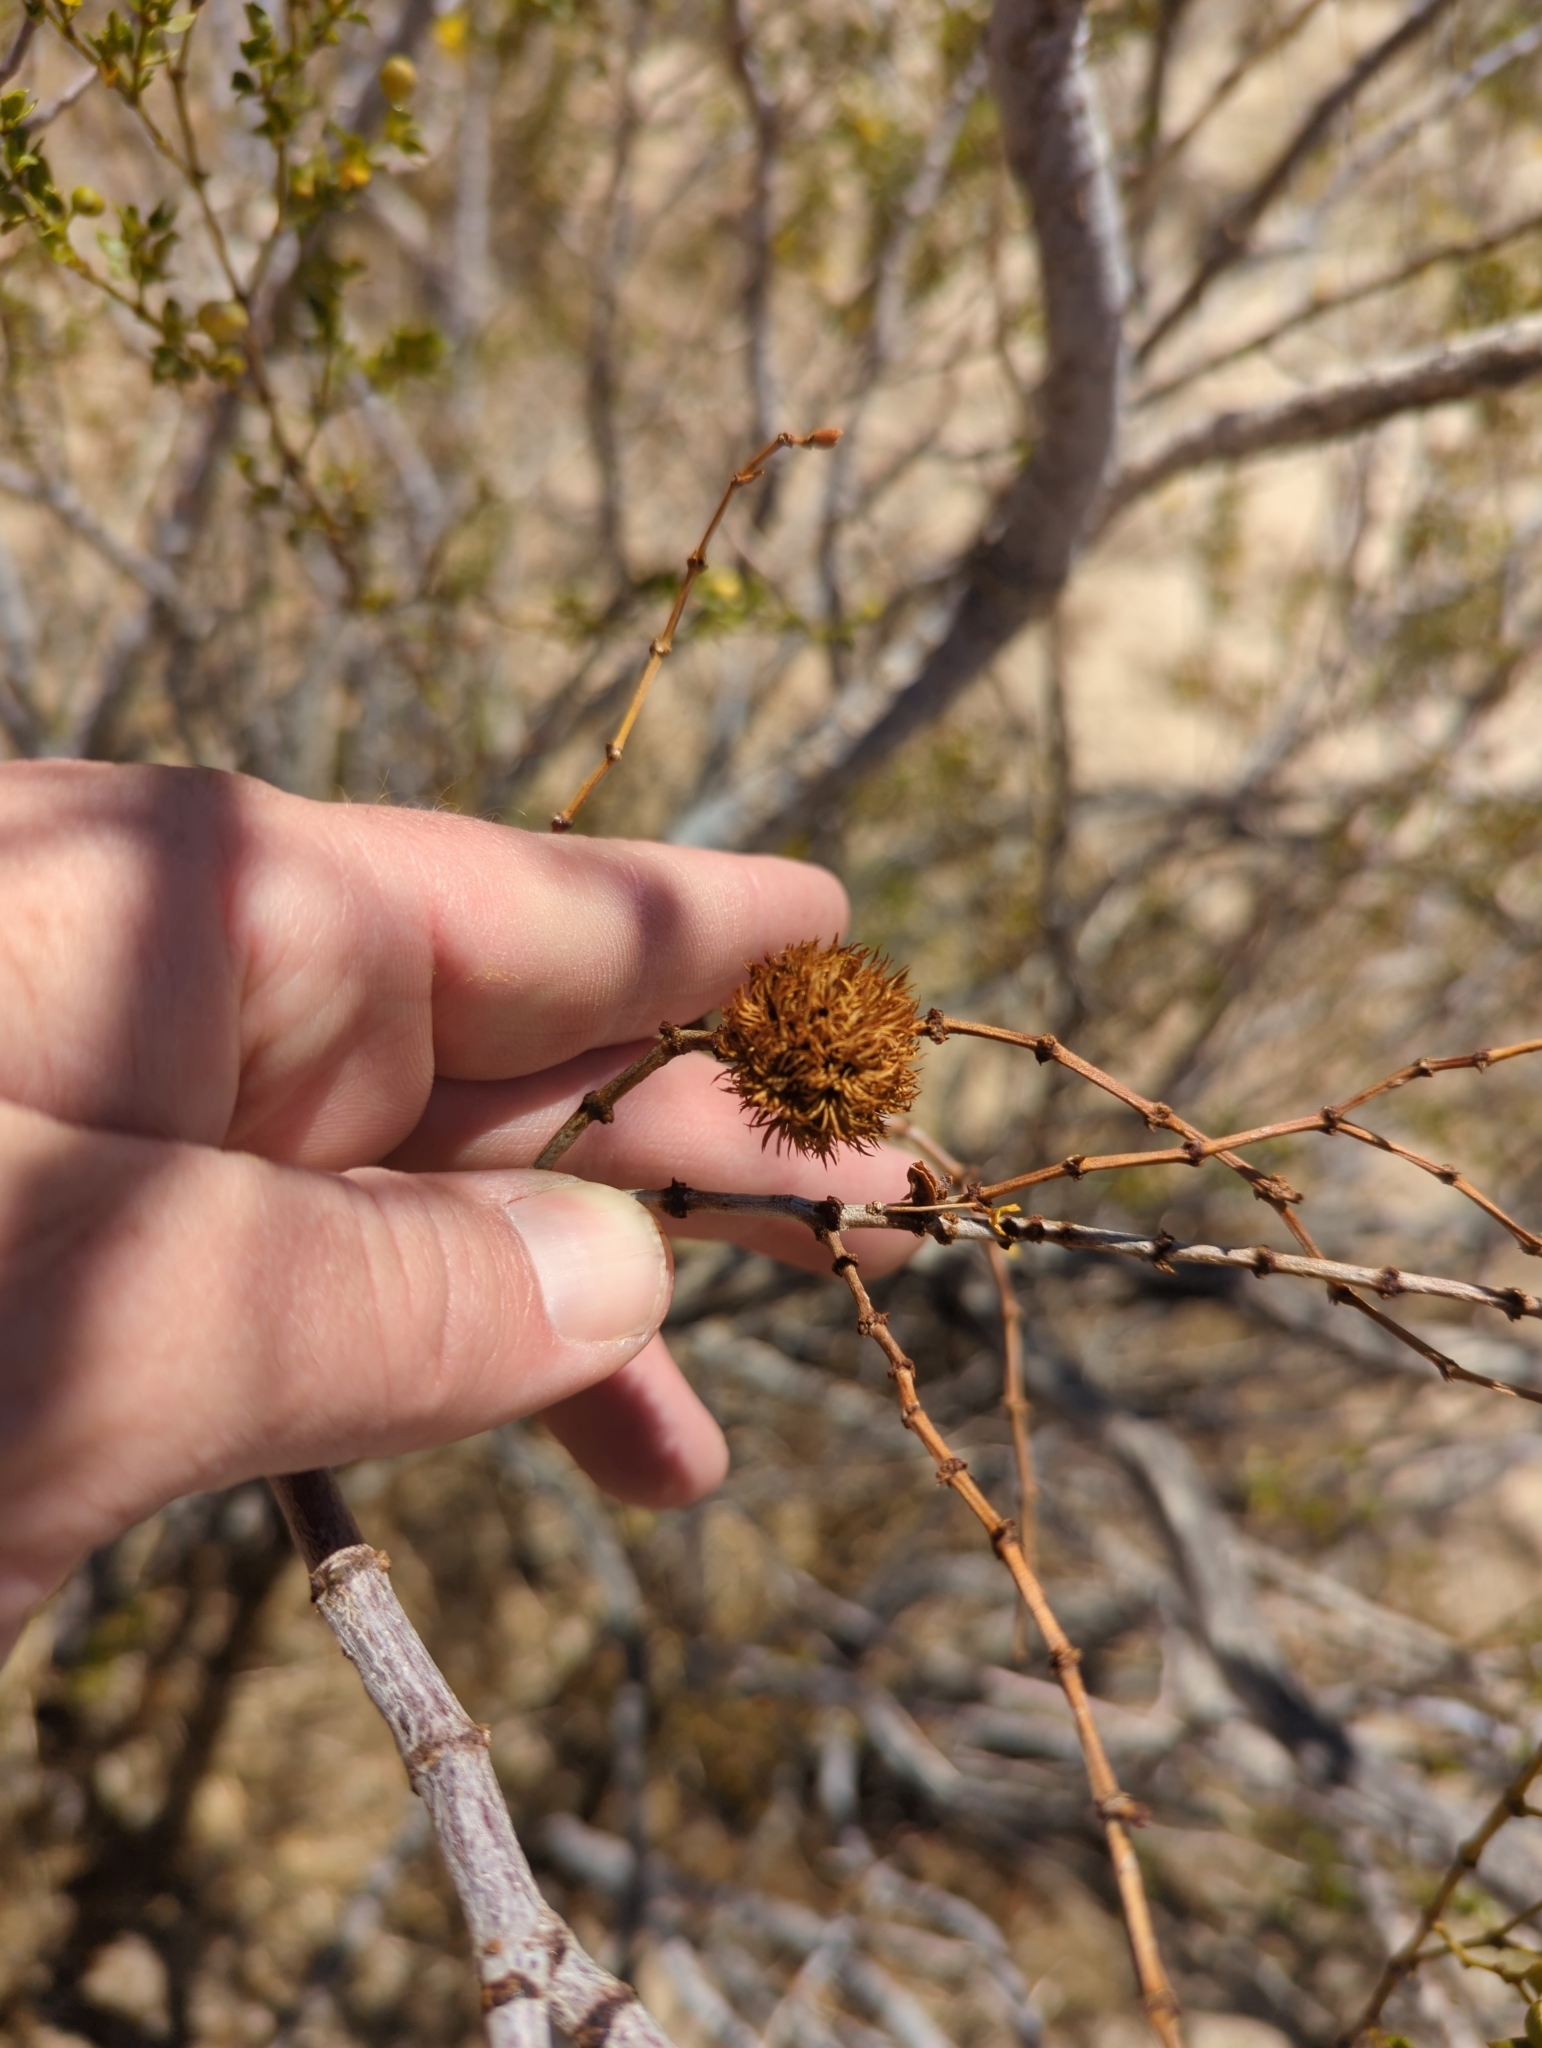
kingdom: Animalia
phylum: Arthropoda
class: Insecta
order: Diptera
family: Cecidomyiidae
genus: Asphondylia
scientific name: Asphondylia auripila
